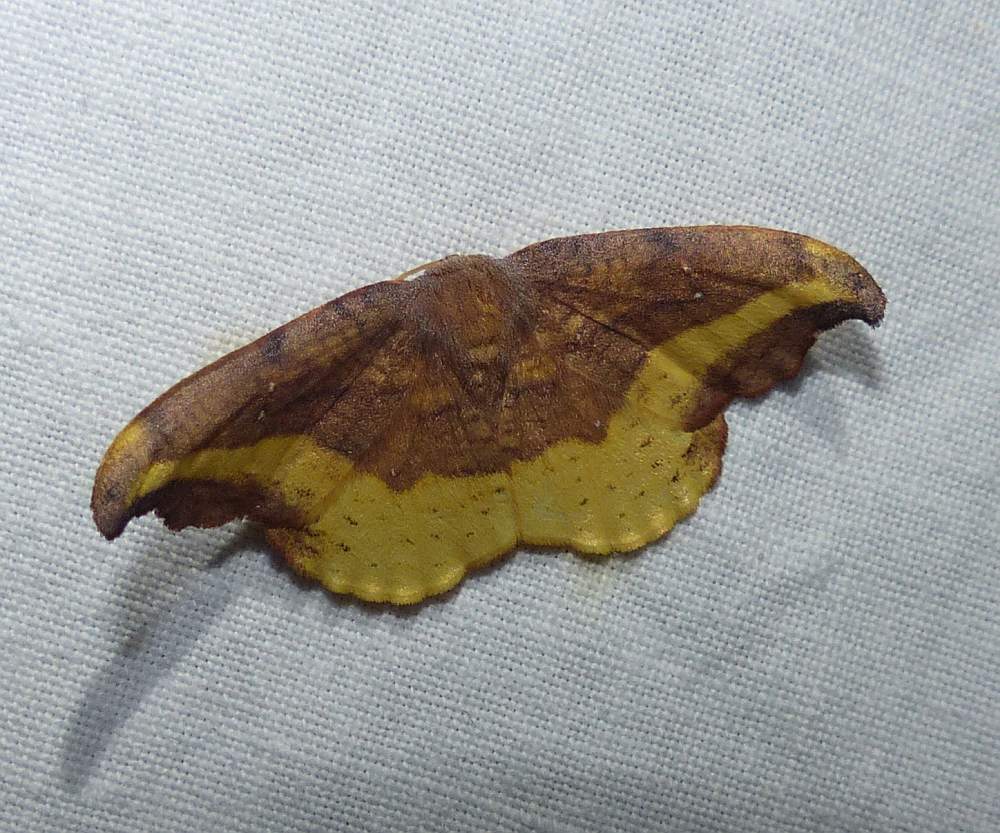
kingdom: Animalia
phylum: Arthropoda
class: Insecta
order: Lepidoptera
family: Drepanidae
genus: Oreta
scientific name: Oreta rosea
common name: Rose hooktip
